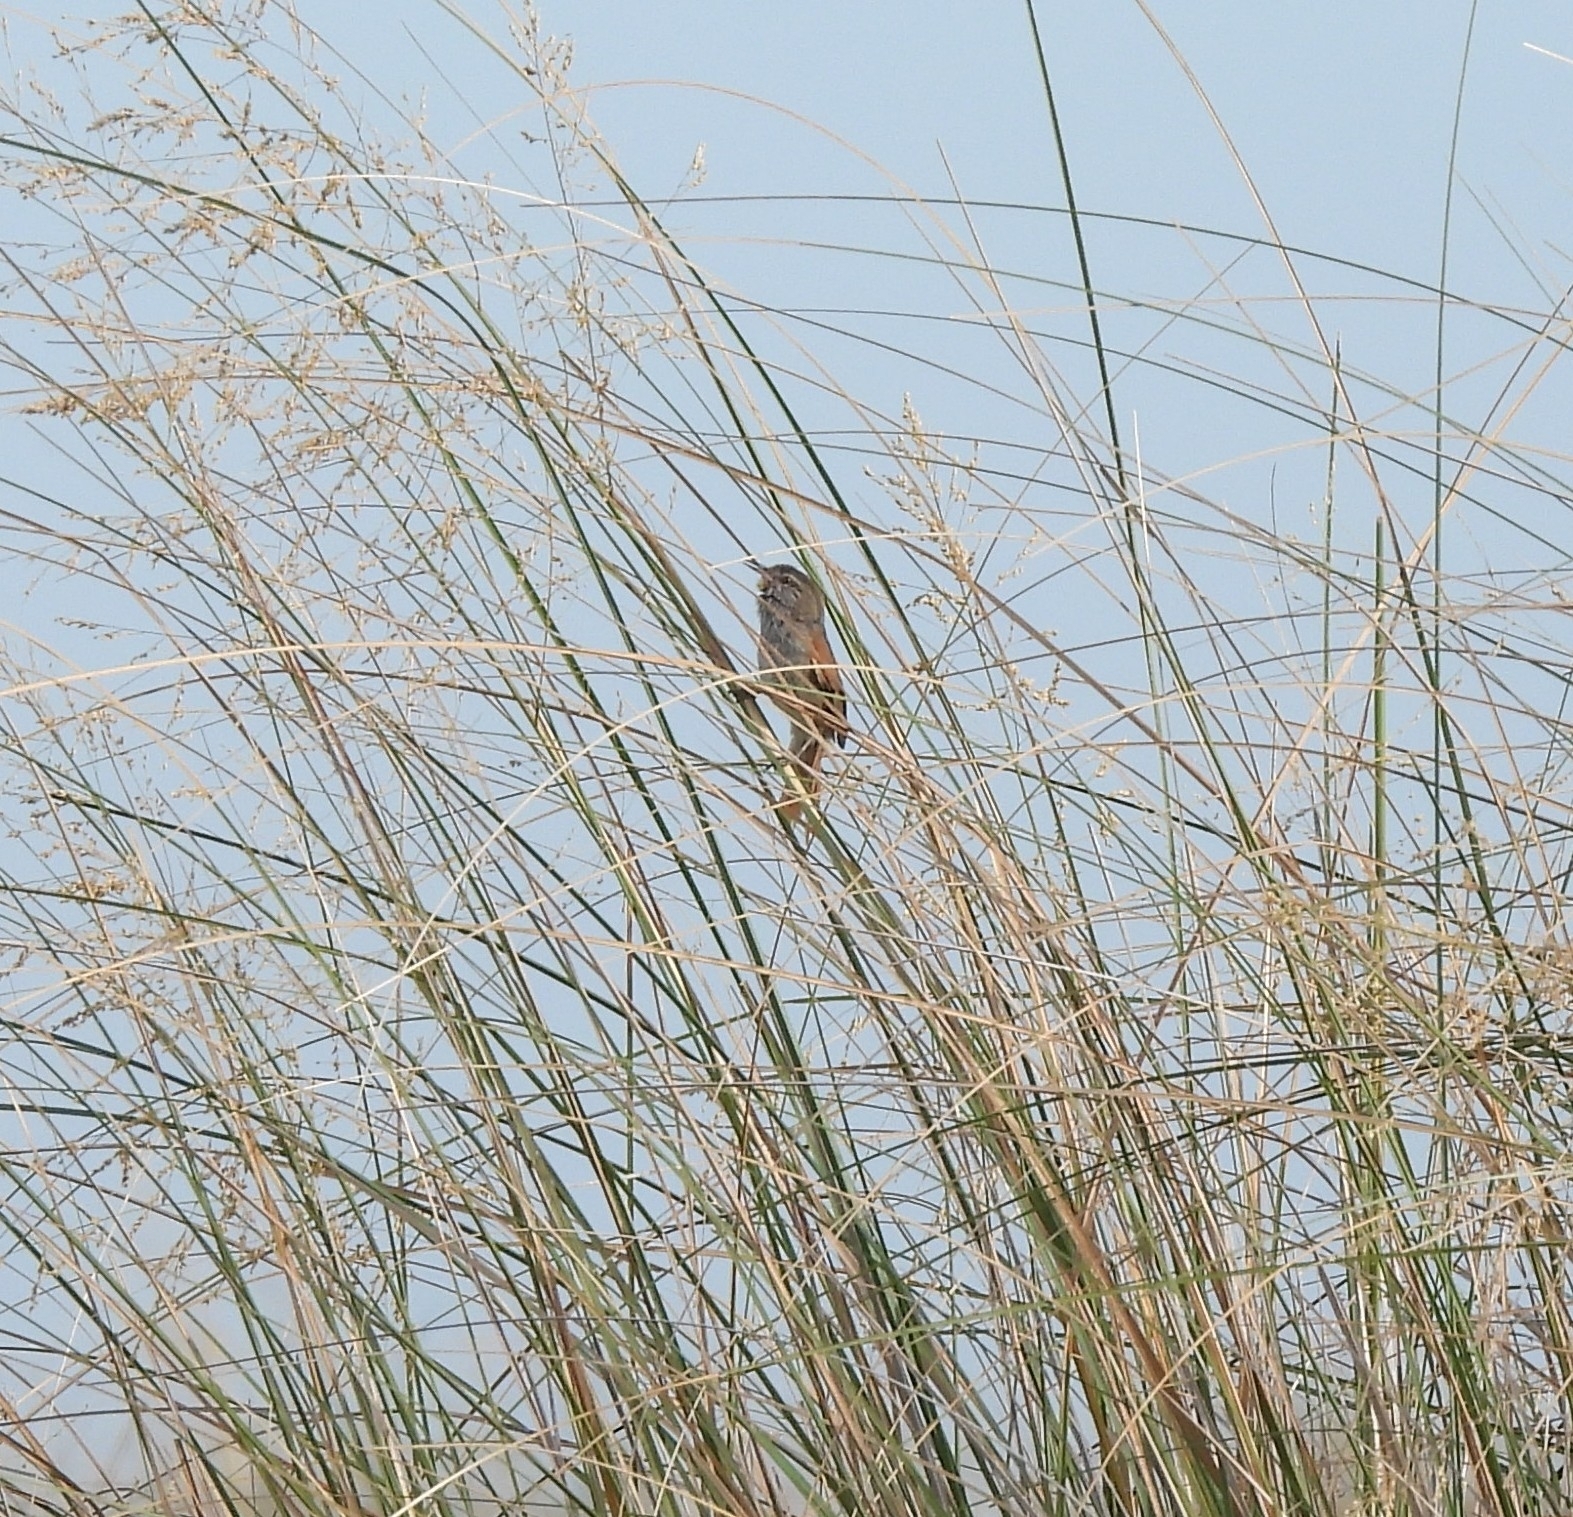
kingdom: Animalia
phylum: Chordata
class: Aves
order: Passeriformes
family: Furnariidae
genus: Cranioleuca
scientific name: Cranioleuca sulphurifera
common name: Sulphur-bearded spinetail
